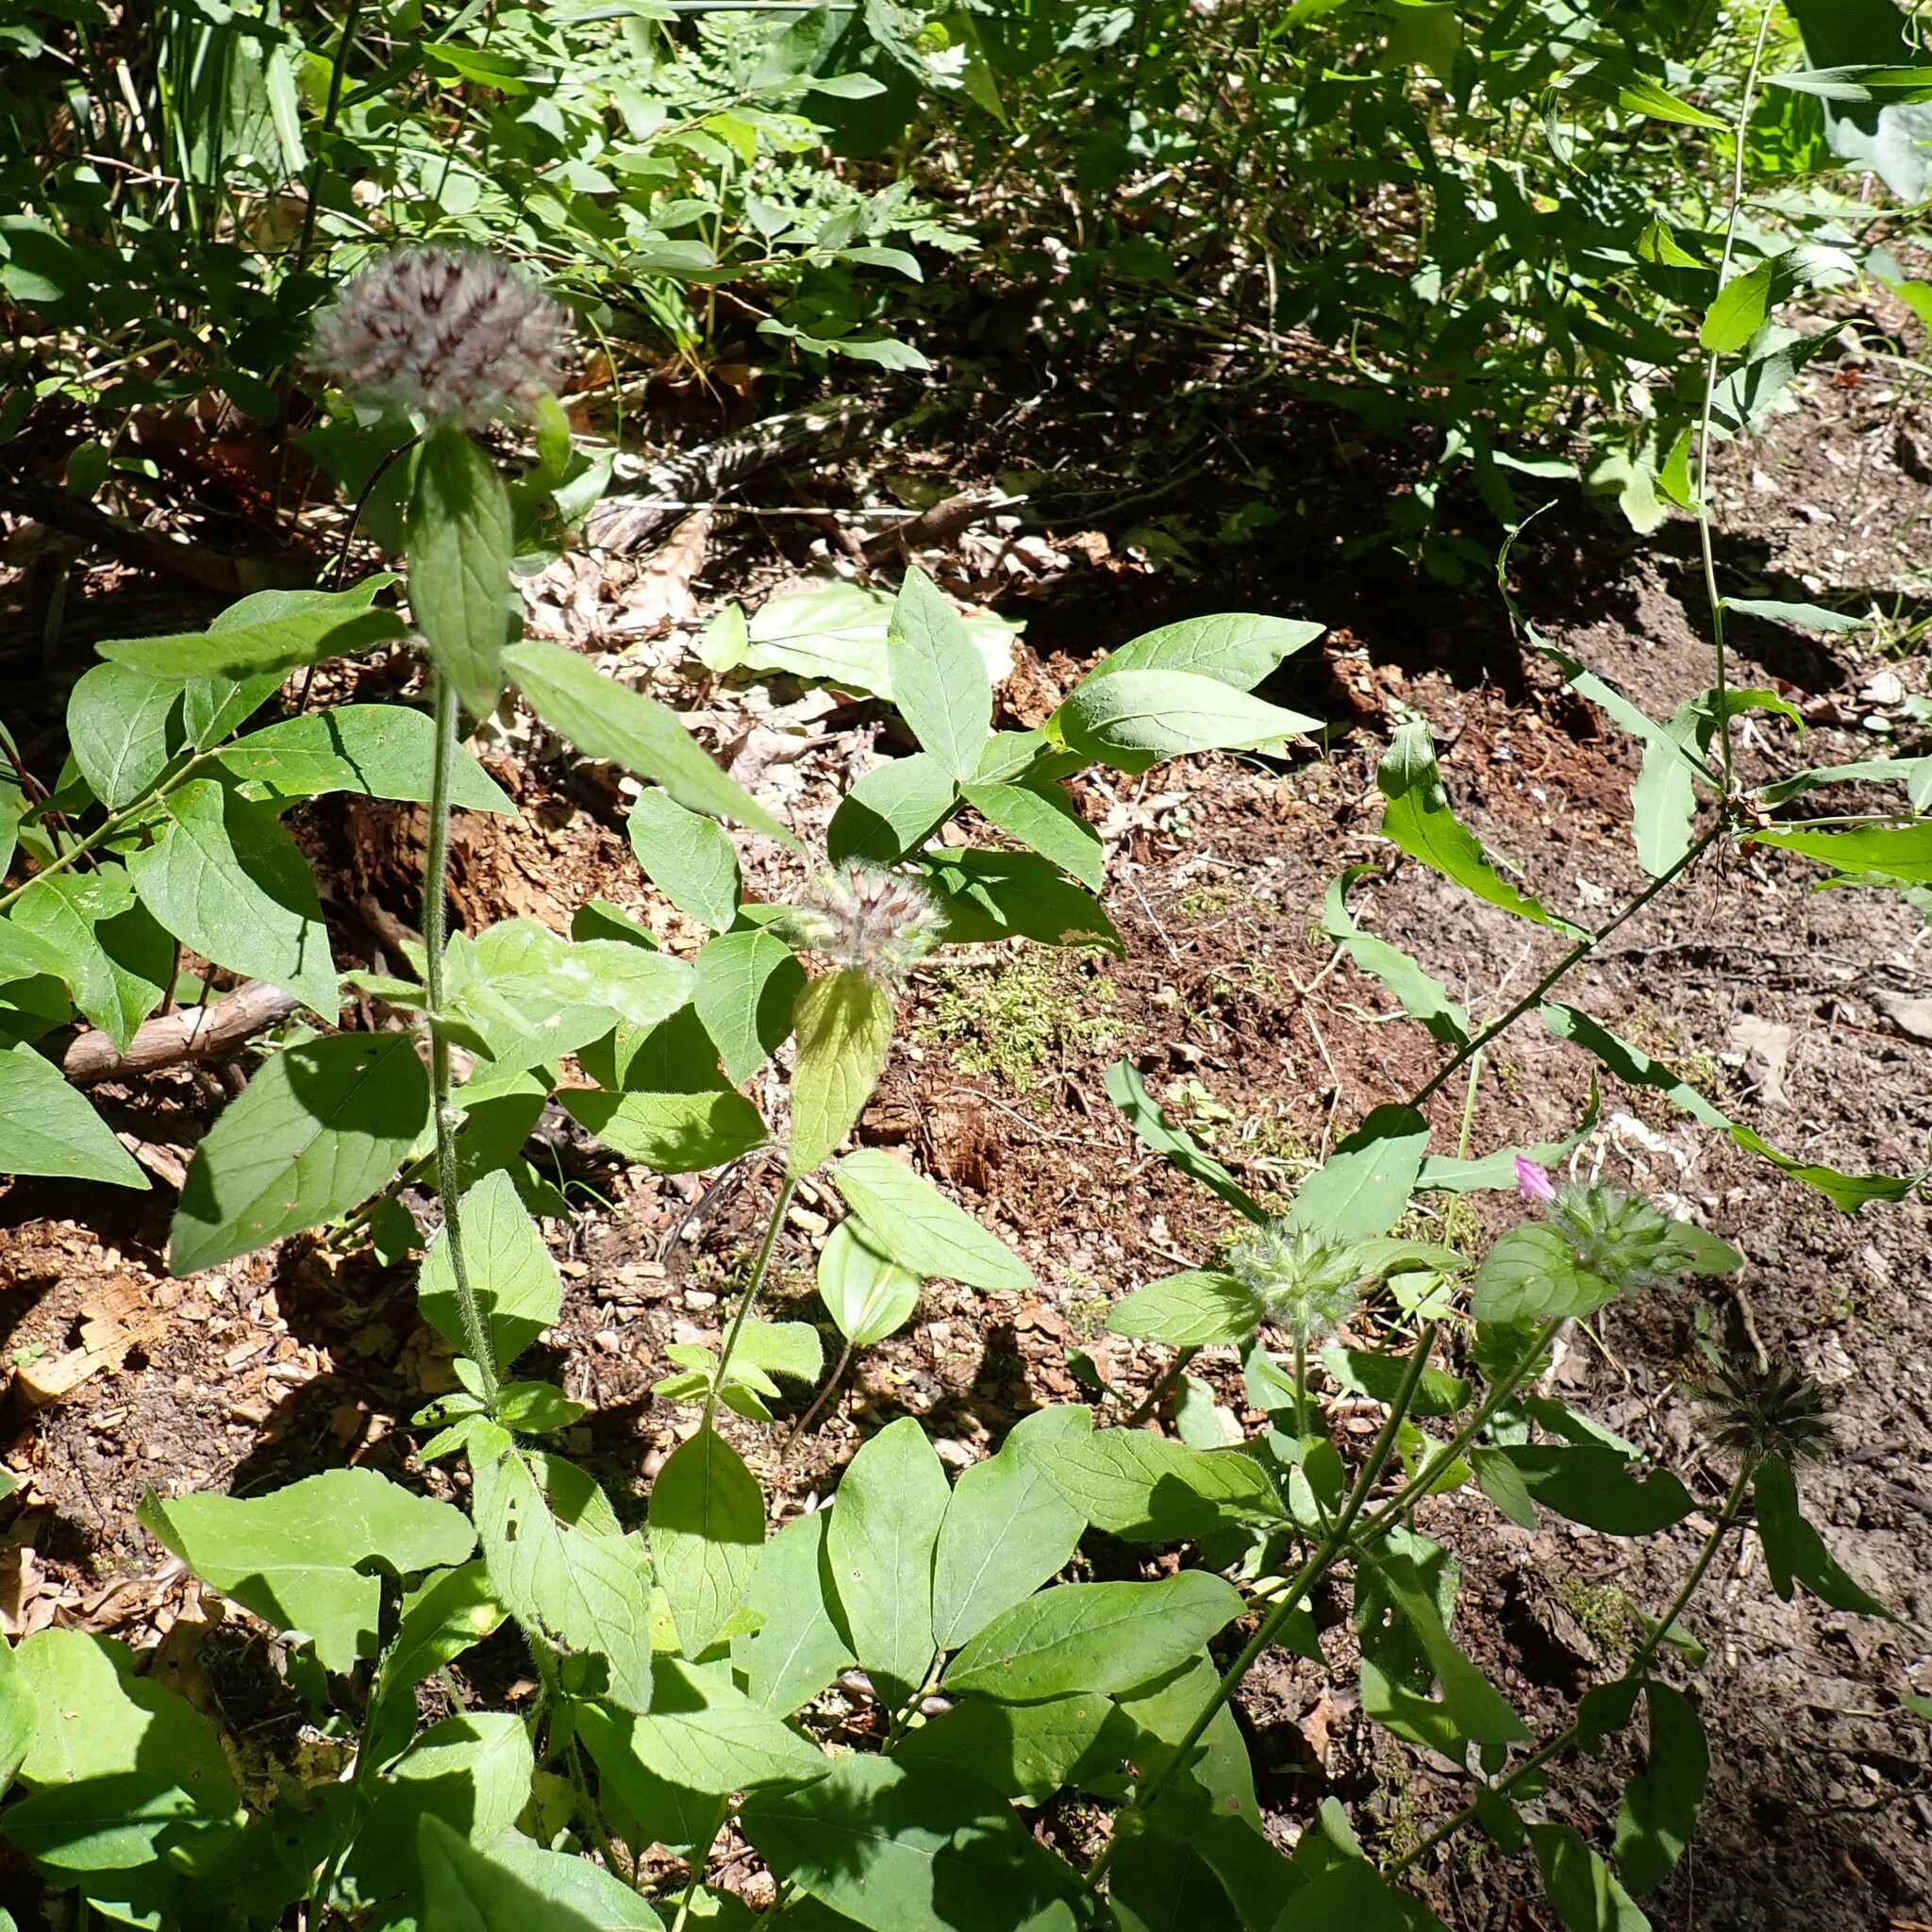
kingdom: Plantae
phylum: Tracheophyta
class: Magnoliopsida
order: Lamiales
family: Lamiaceae
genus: Clinopodium
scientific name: Clinopodium vulgare
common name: Wild basil
